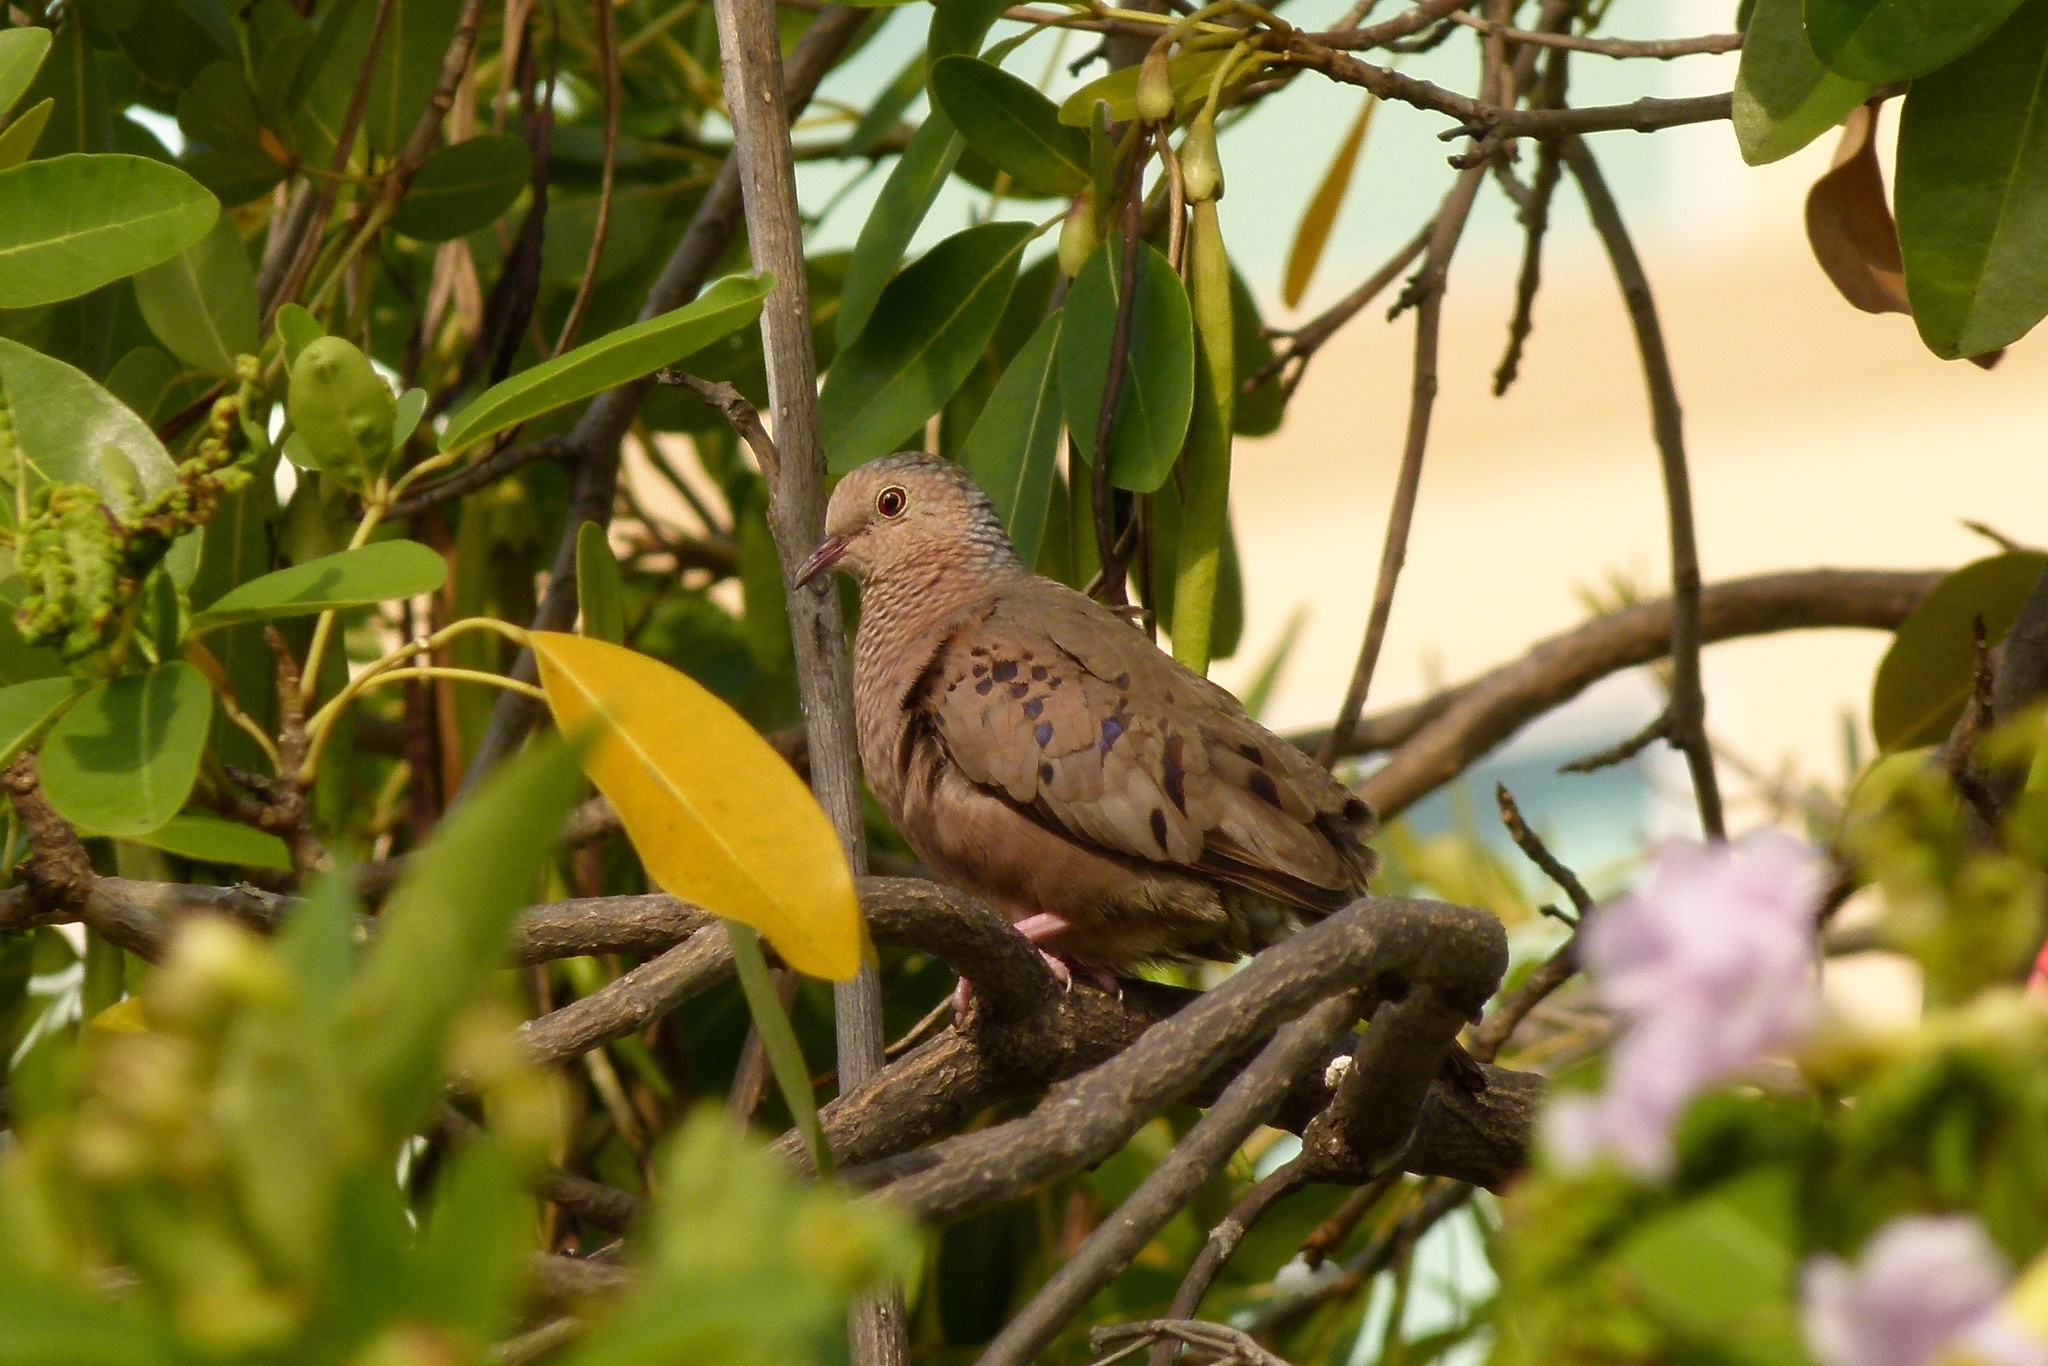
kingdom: Animalia
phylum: Chordata
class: Aves
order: Columbiformes
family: Columbidae
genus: Columbina
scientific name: Columbina passerina
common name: Common ground-dove
